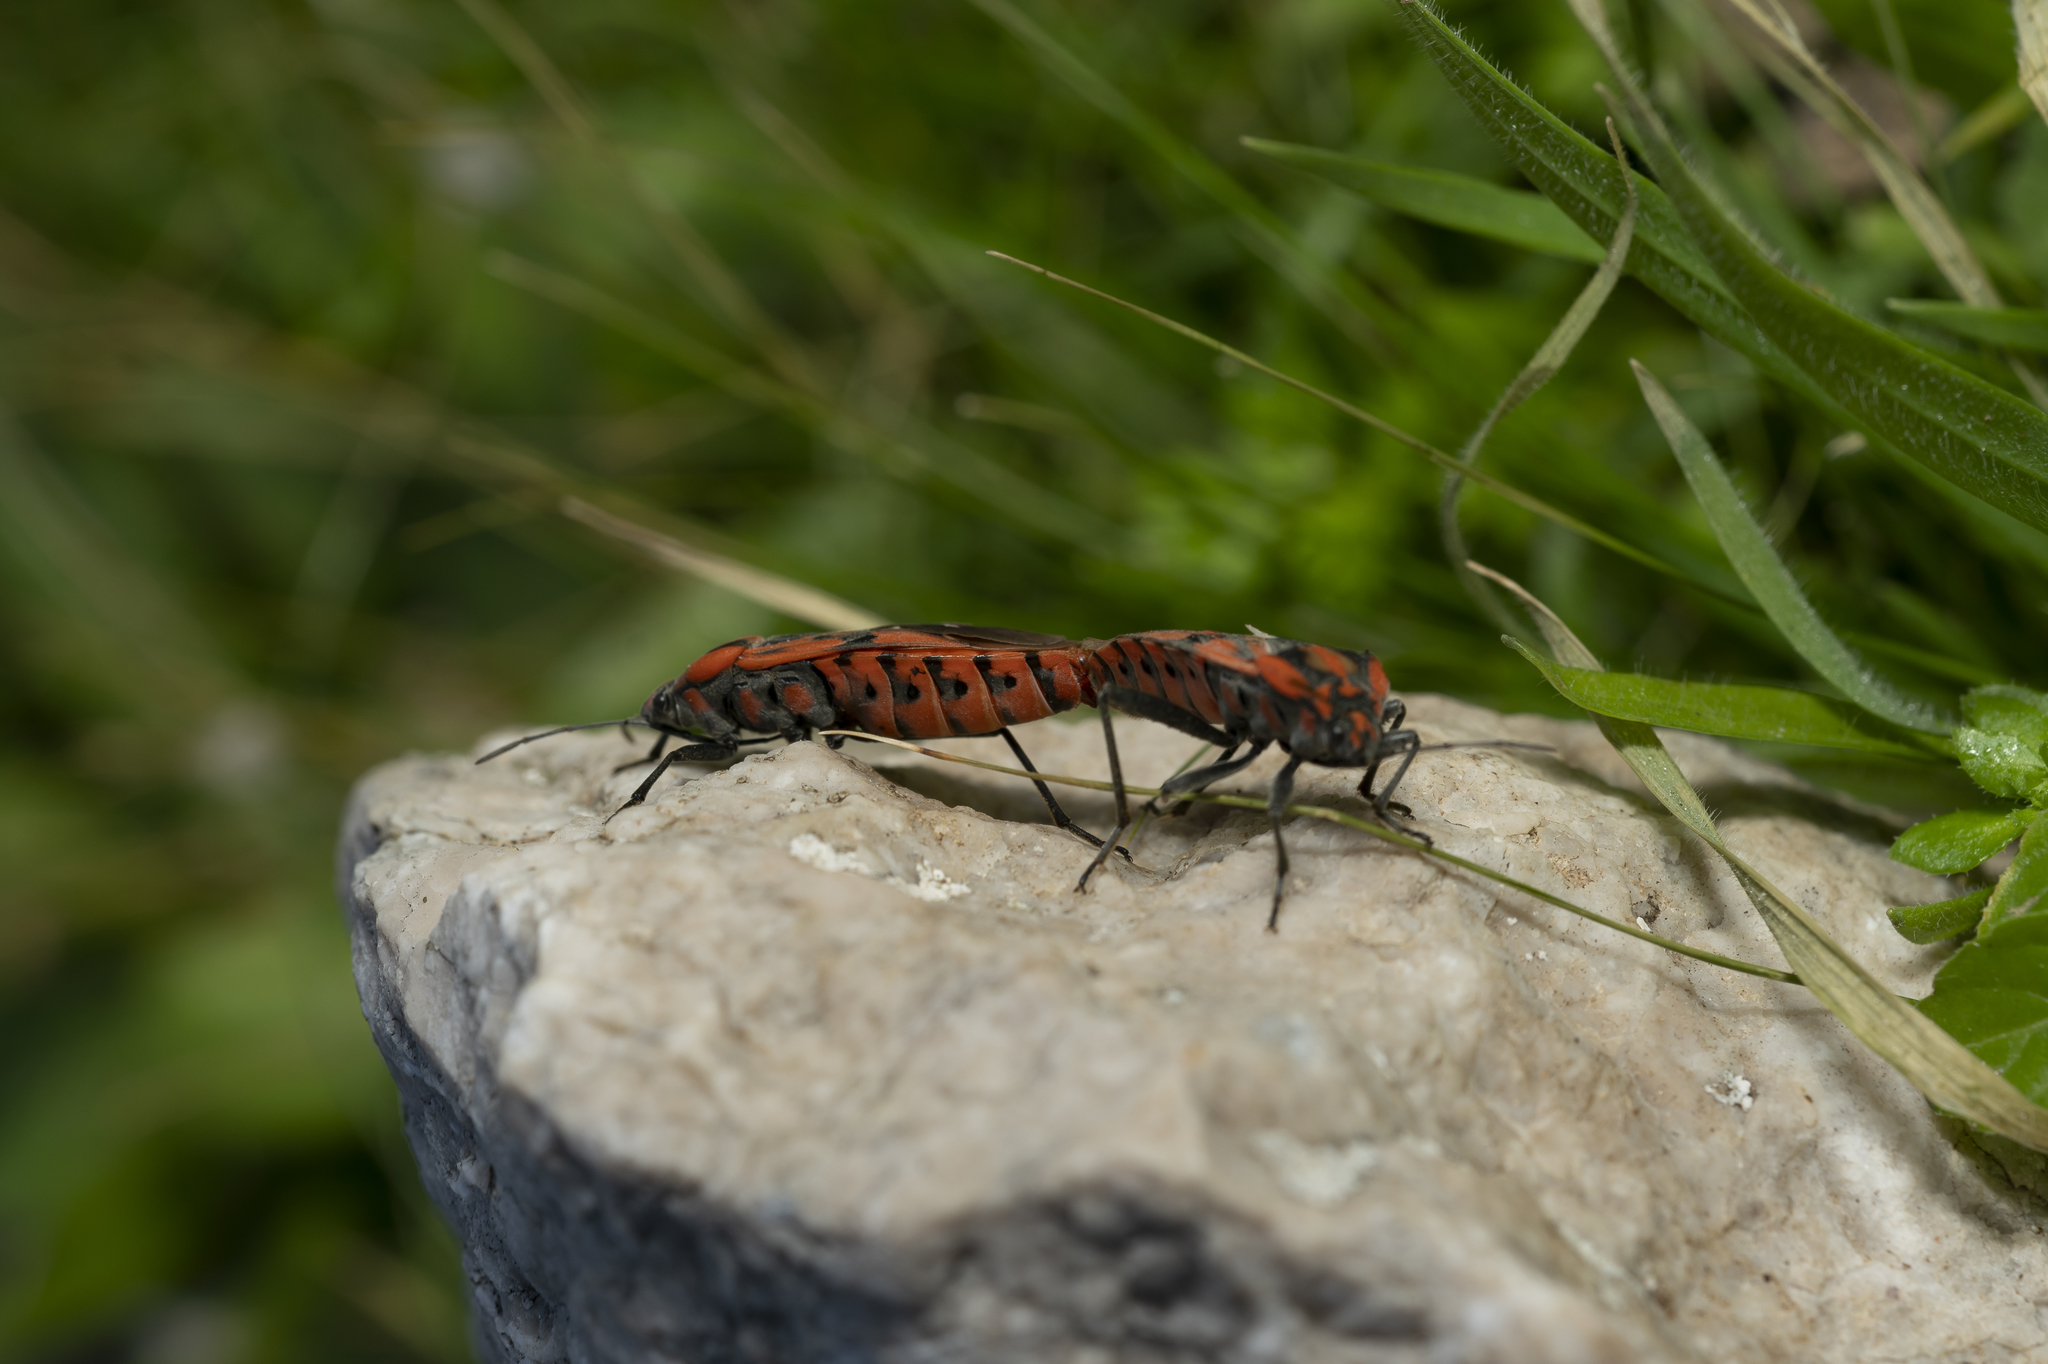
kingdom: Animalia
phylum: Arthropoda
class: Insecta
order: Hemiptera
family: Lygaeidae
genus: Spilostethus
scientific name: Spilostethus pandurus
